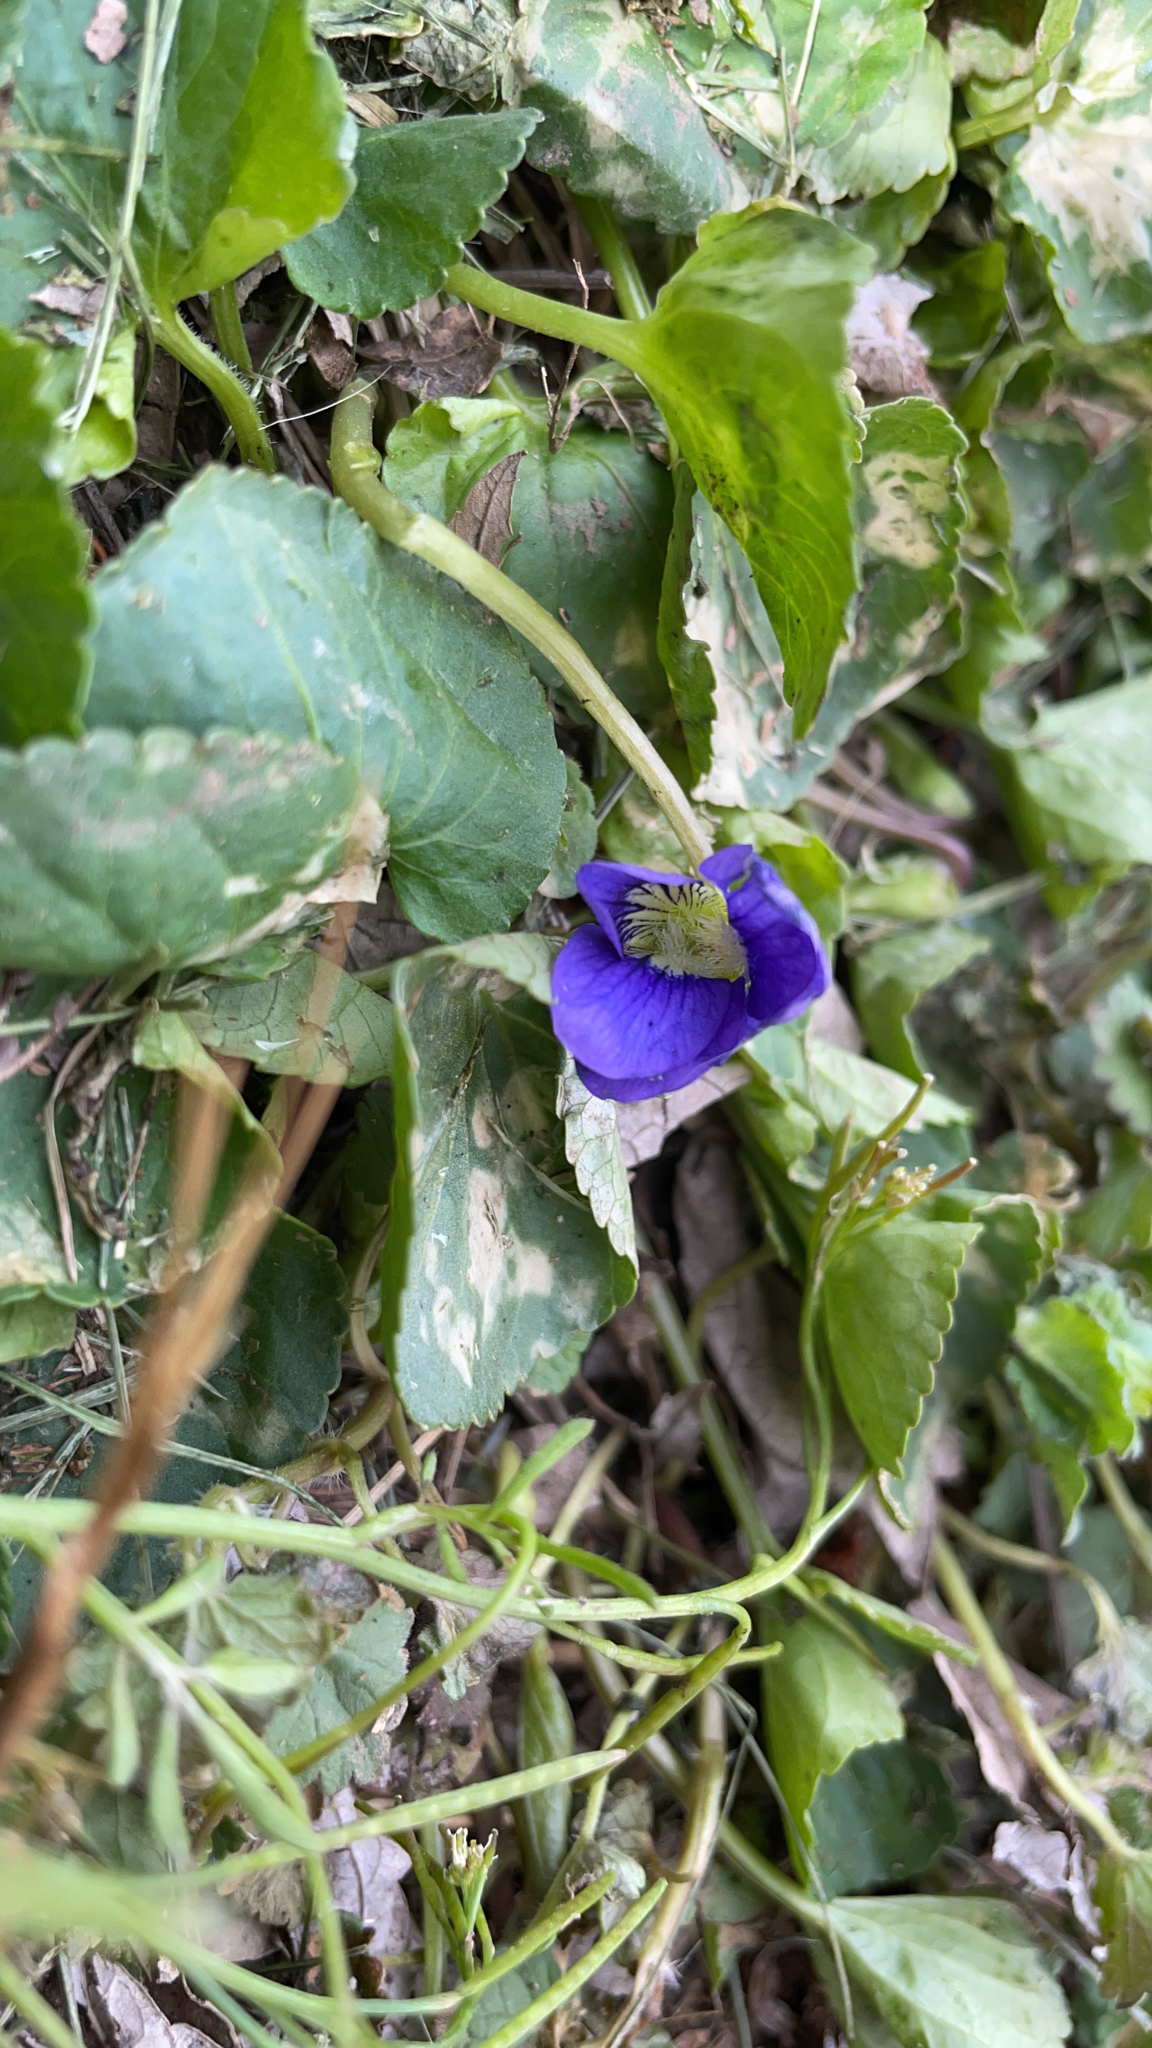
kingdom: Plantae
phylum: Tracheophyta
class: Magnoliopsida
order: Malpighiales
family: Violaceae
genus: Viola
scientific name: Viola sororia
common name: Dooryard violet
